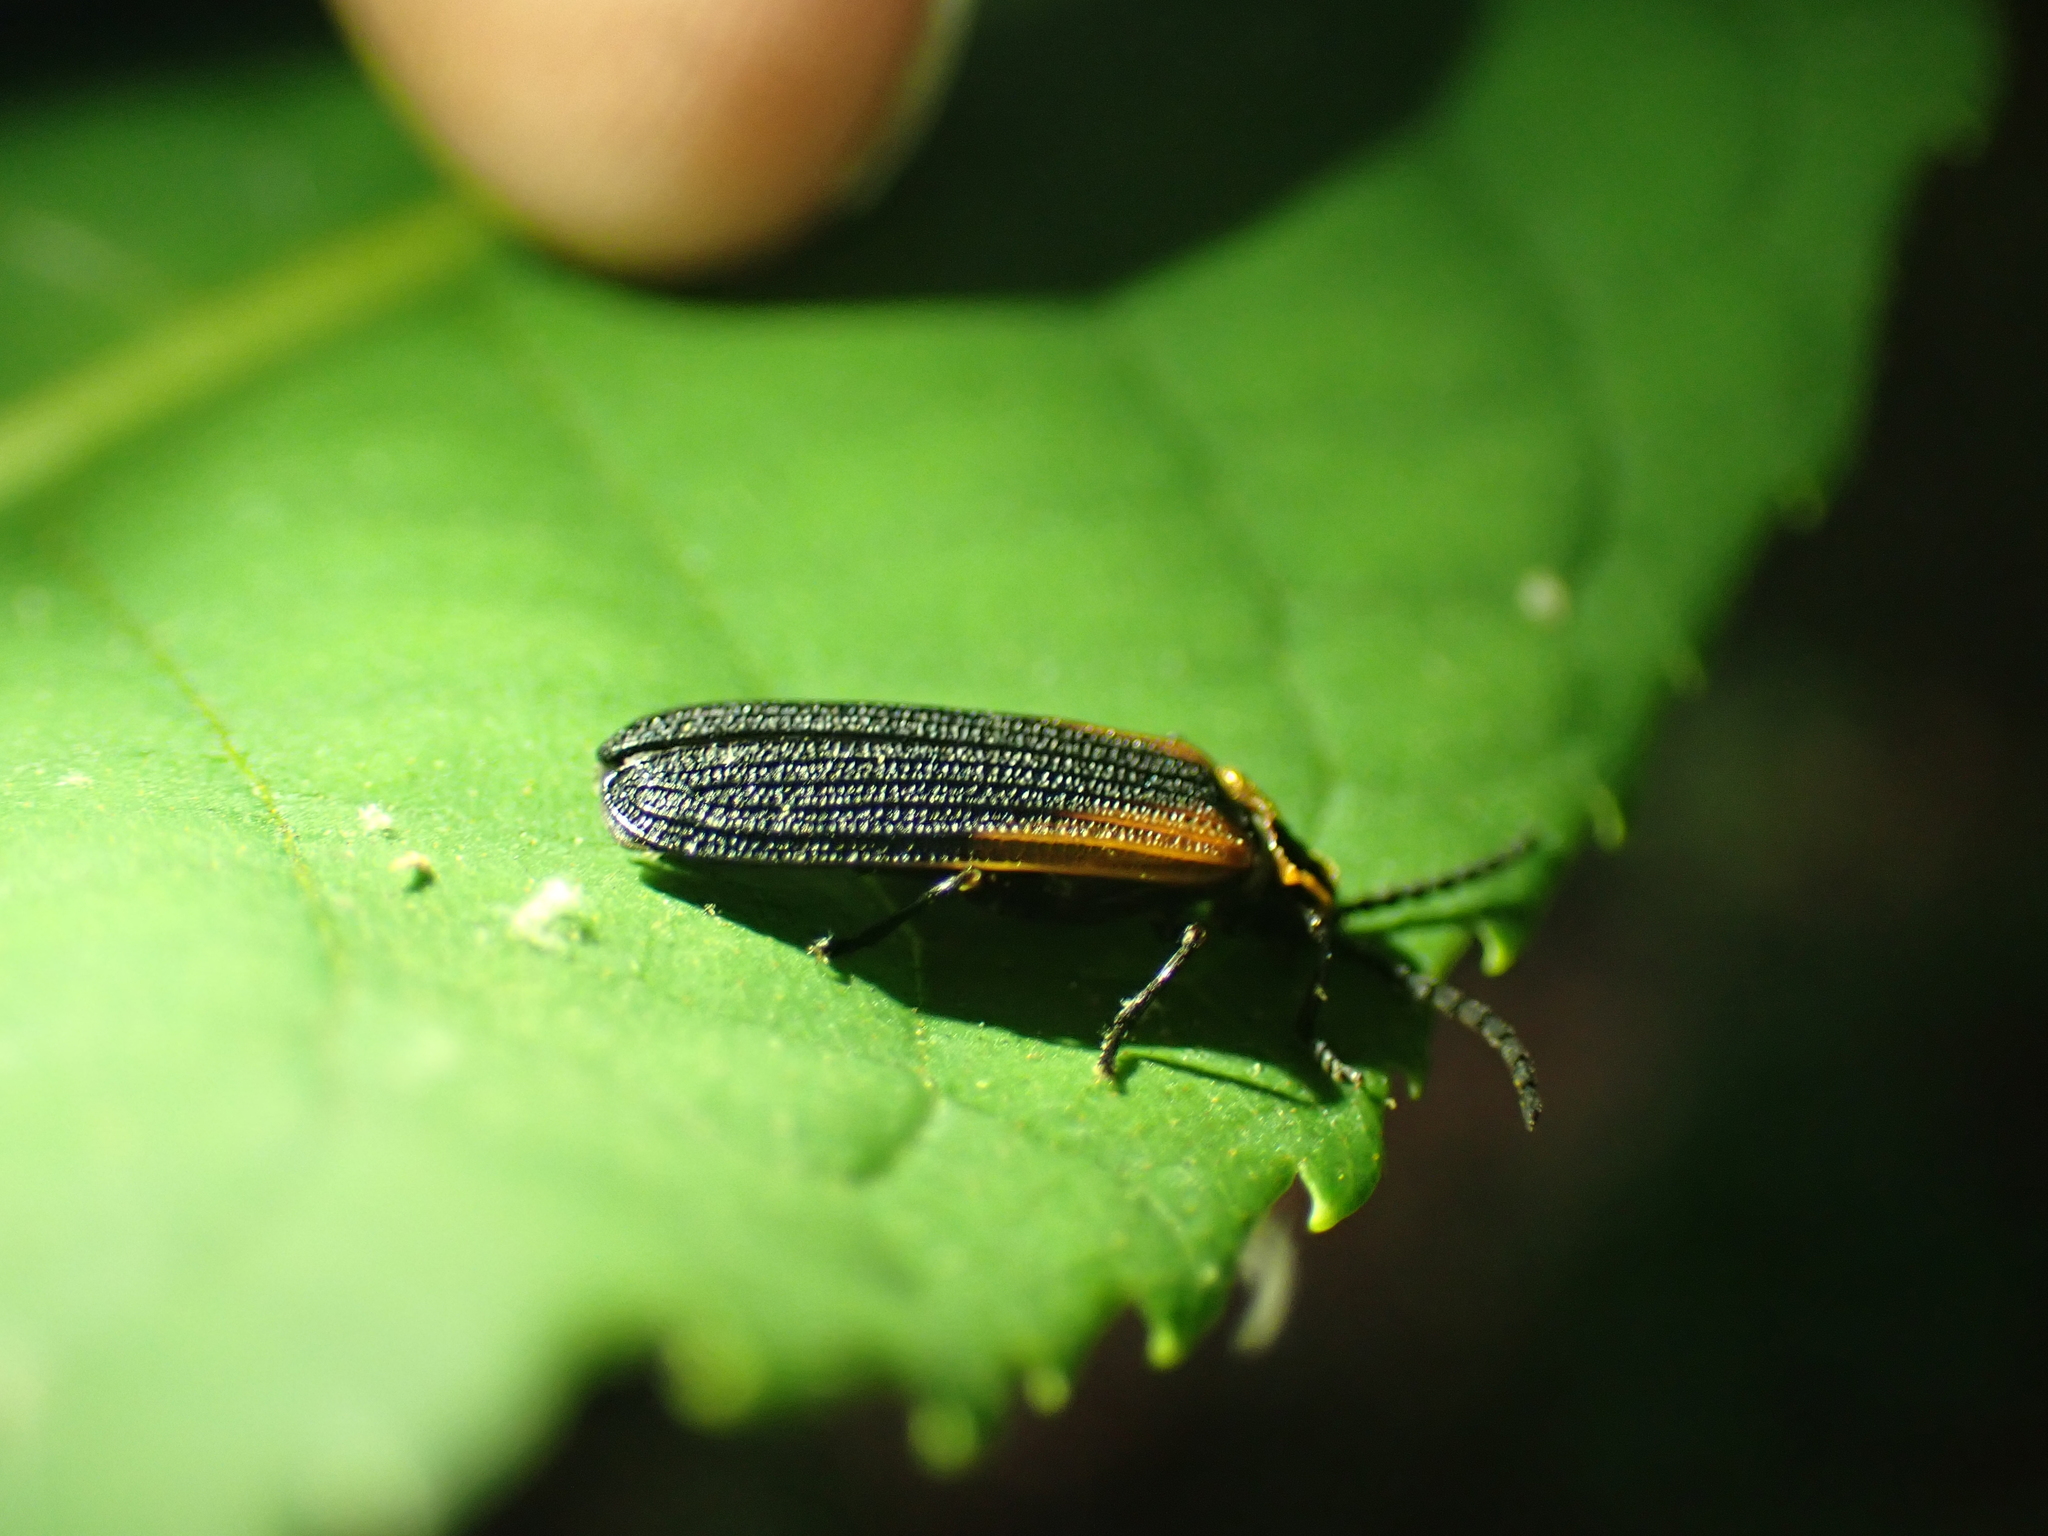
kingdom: Animalia
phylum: Arthropoda
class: Insecta
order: Coleoptera
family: Lycidae
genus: Eros
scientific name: Eros humeralis
